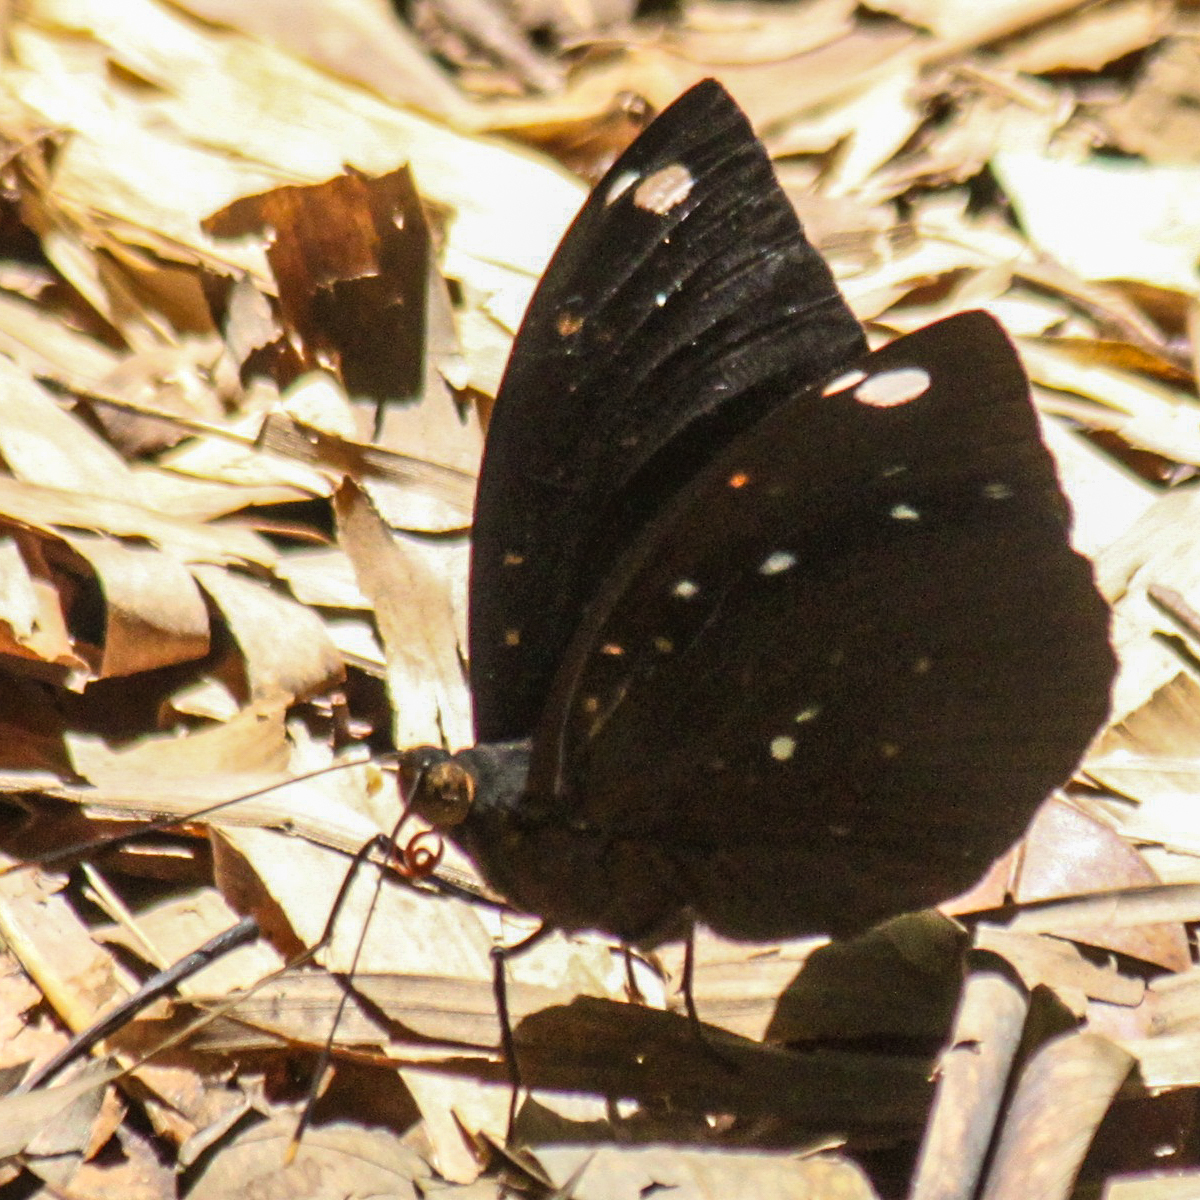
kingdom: Animalia
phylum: Arthropoda
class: Insecta
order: Lepidoptera
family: Nymphalidae
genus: Lexias
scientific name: Lexias
